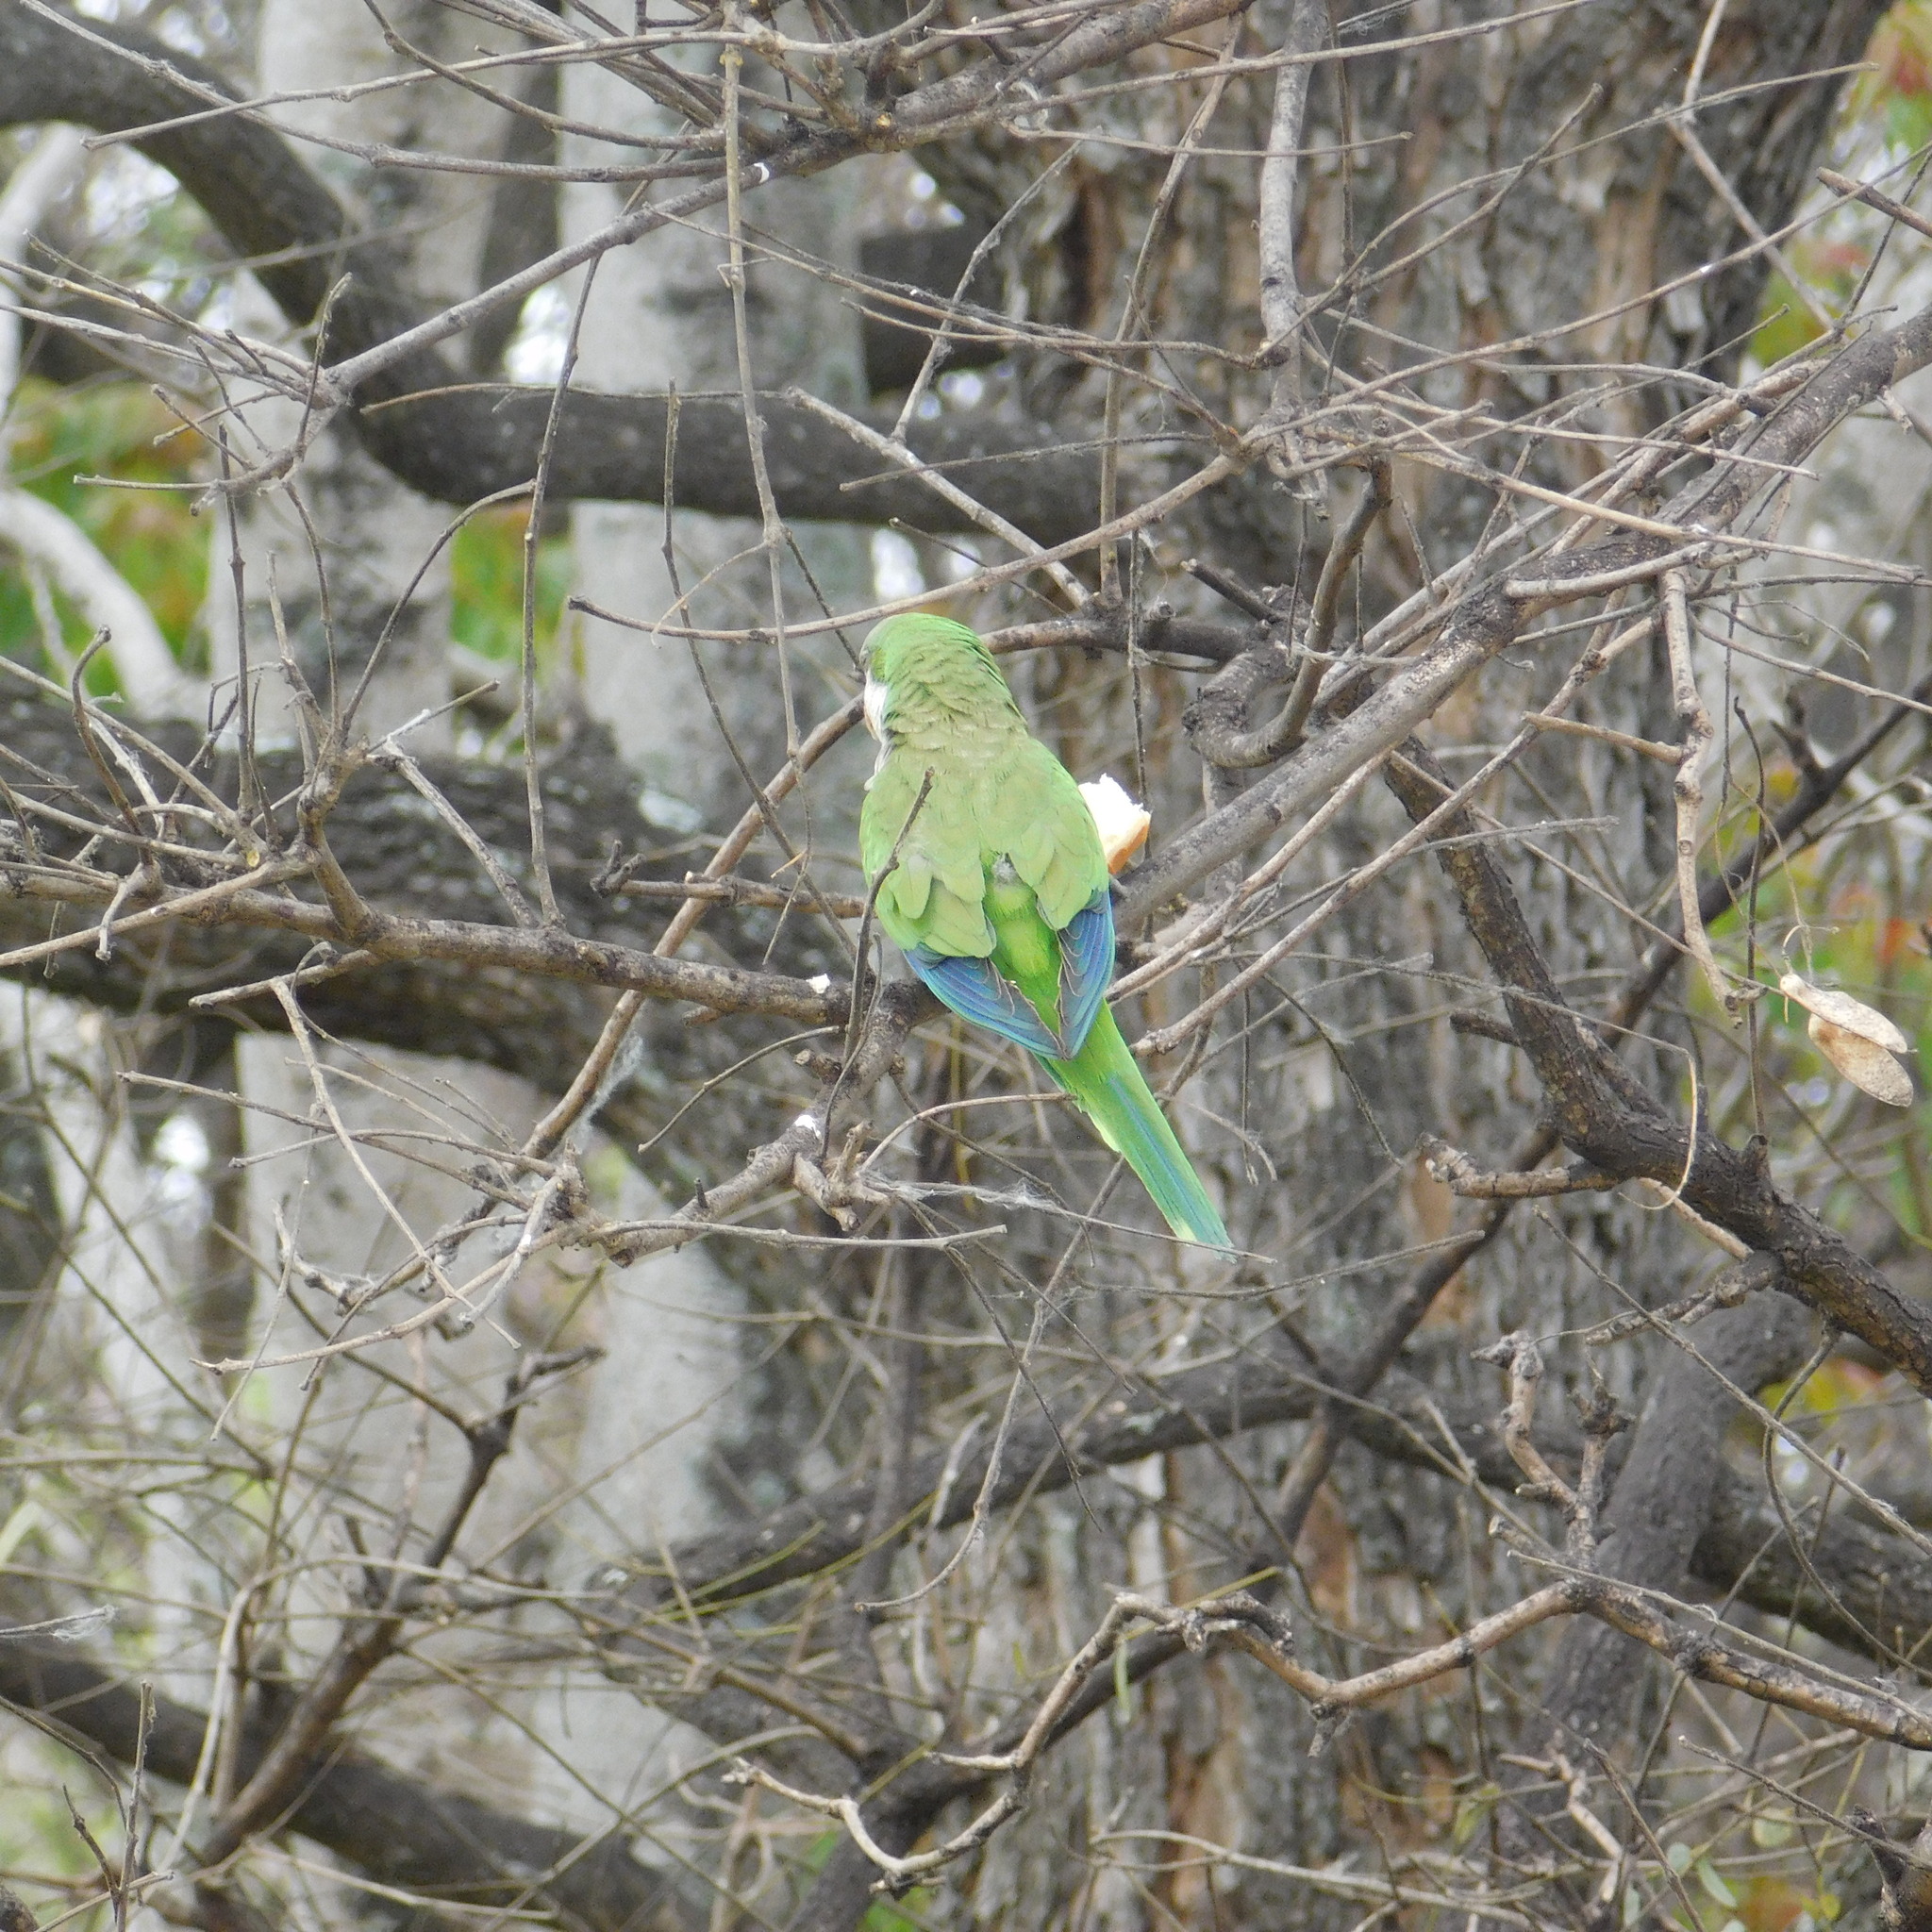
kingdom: Animalia
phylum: Chordata
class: Aves
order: Psittaciformes
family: Psittacidae
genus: Myiopsitta
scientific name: Myiopsitta monachus
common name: Monk parakeet
